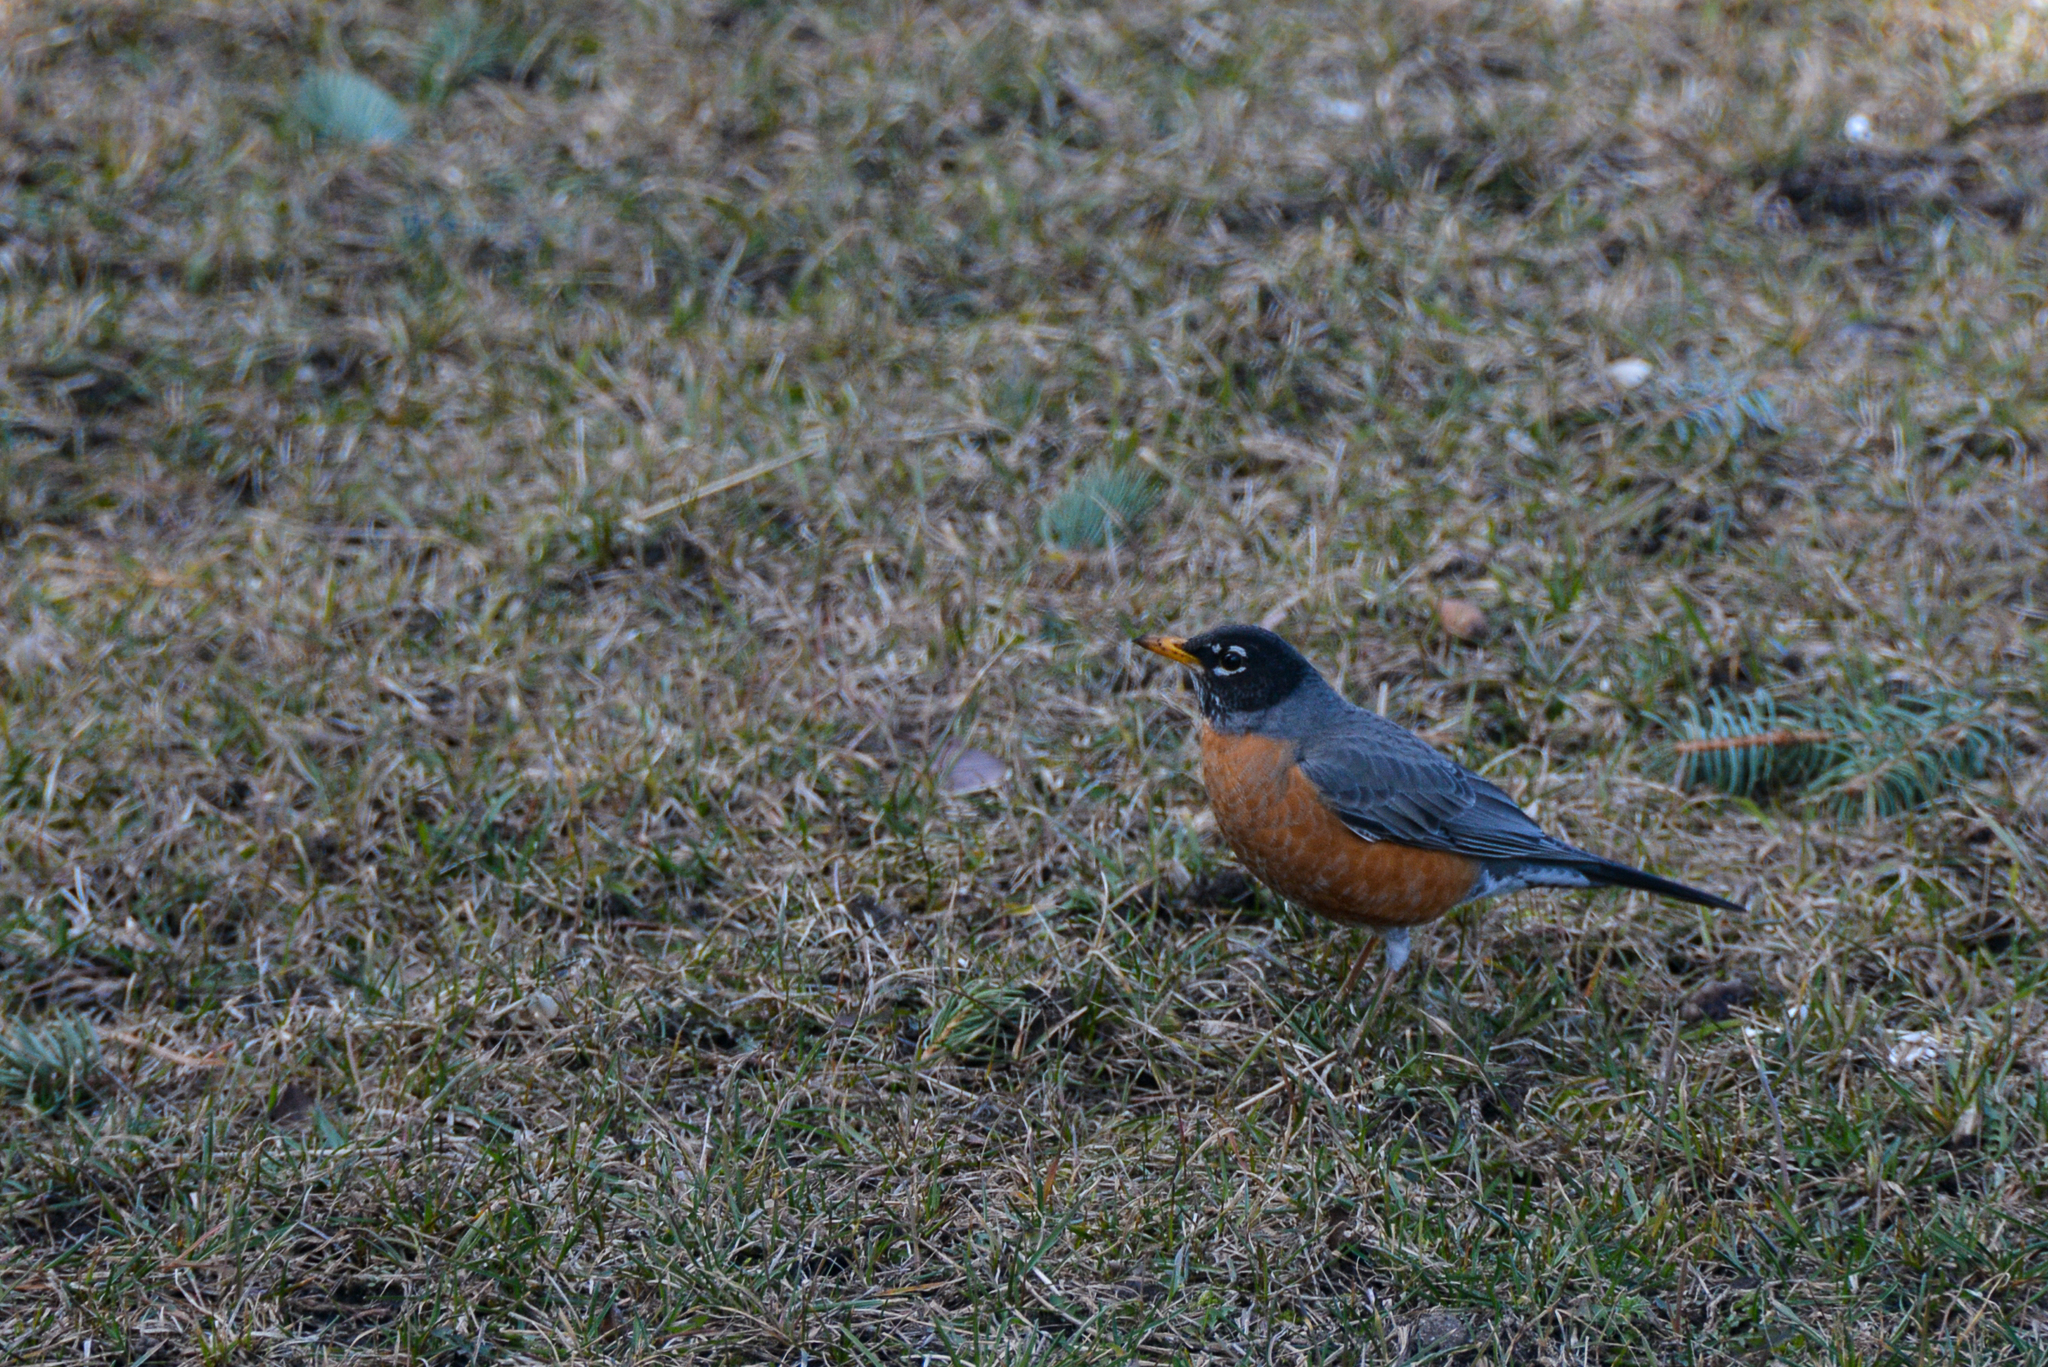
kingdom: Animalia
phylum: Chordata
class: Aves
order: Passeriformes
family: Turdidae
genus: Turdus
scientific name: Turdus migratorius
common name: American robin
